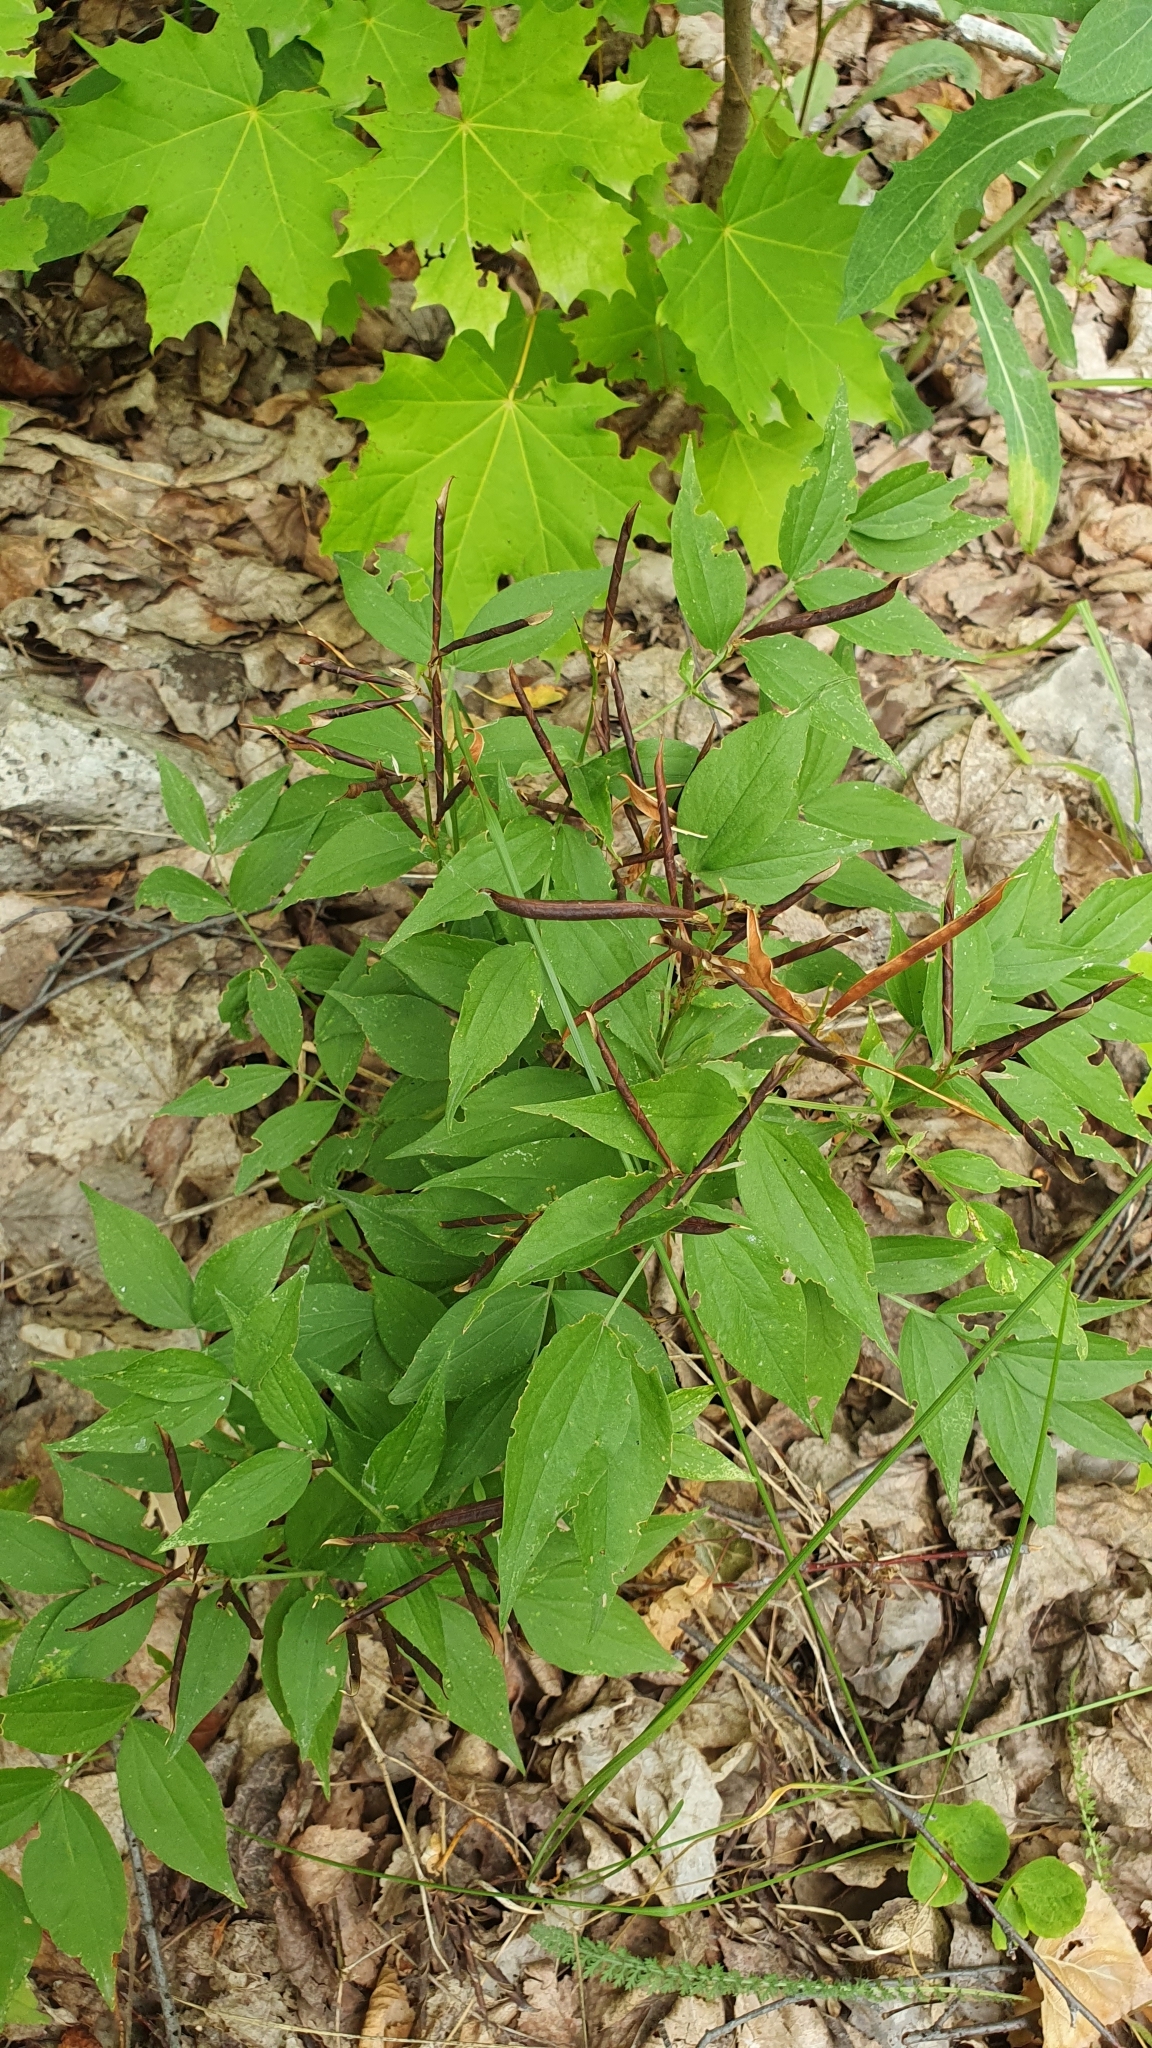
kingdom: Plantae
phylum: Tracheophyta
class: Magnoliopsida
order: Fabales
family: Fabaceae
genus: Lathyrus
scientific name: Lathyrus vernus
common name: Spring pea
